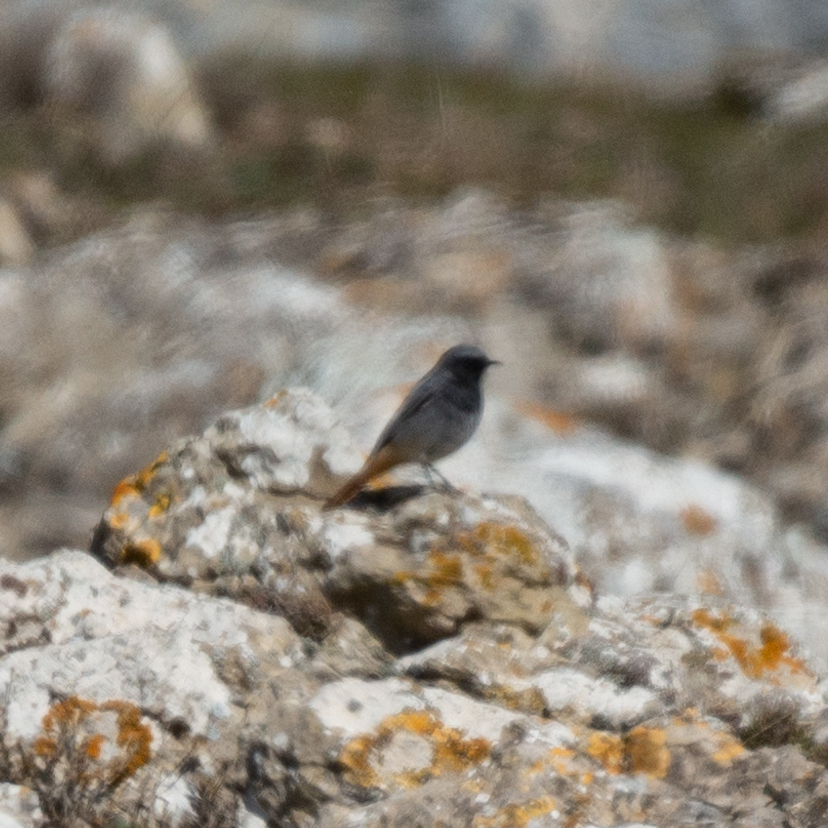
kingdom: Animalia
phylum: Chordata
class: Aves
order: Passeriformes
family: Muscicapidae
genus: Phoenicurus
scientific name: Phoenicurus ochruros
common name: Black redstart
